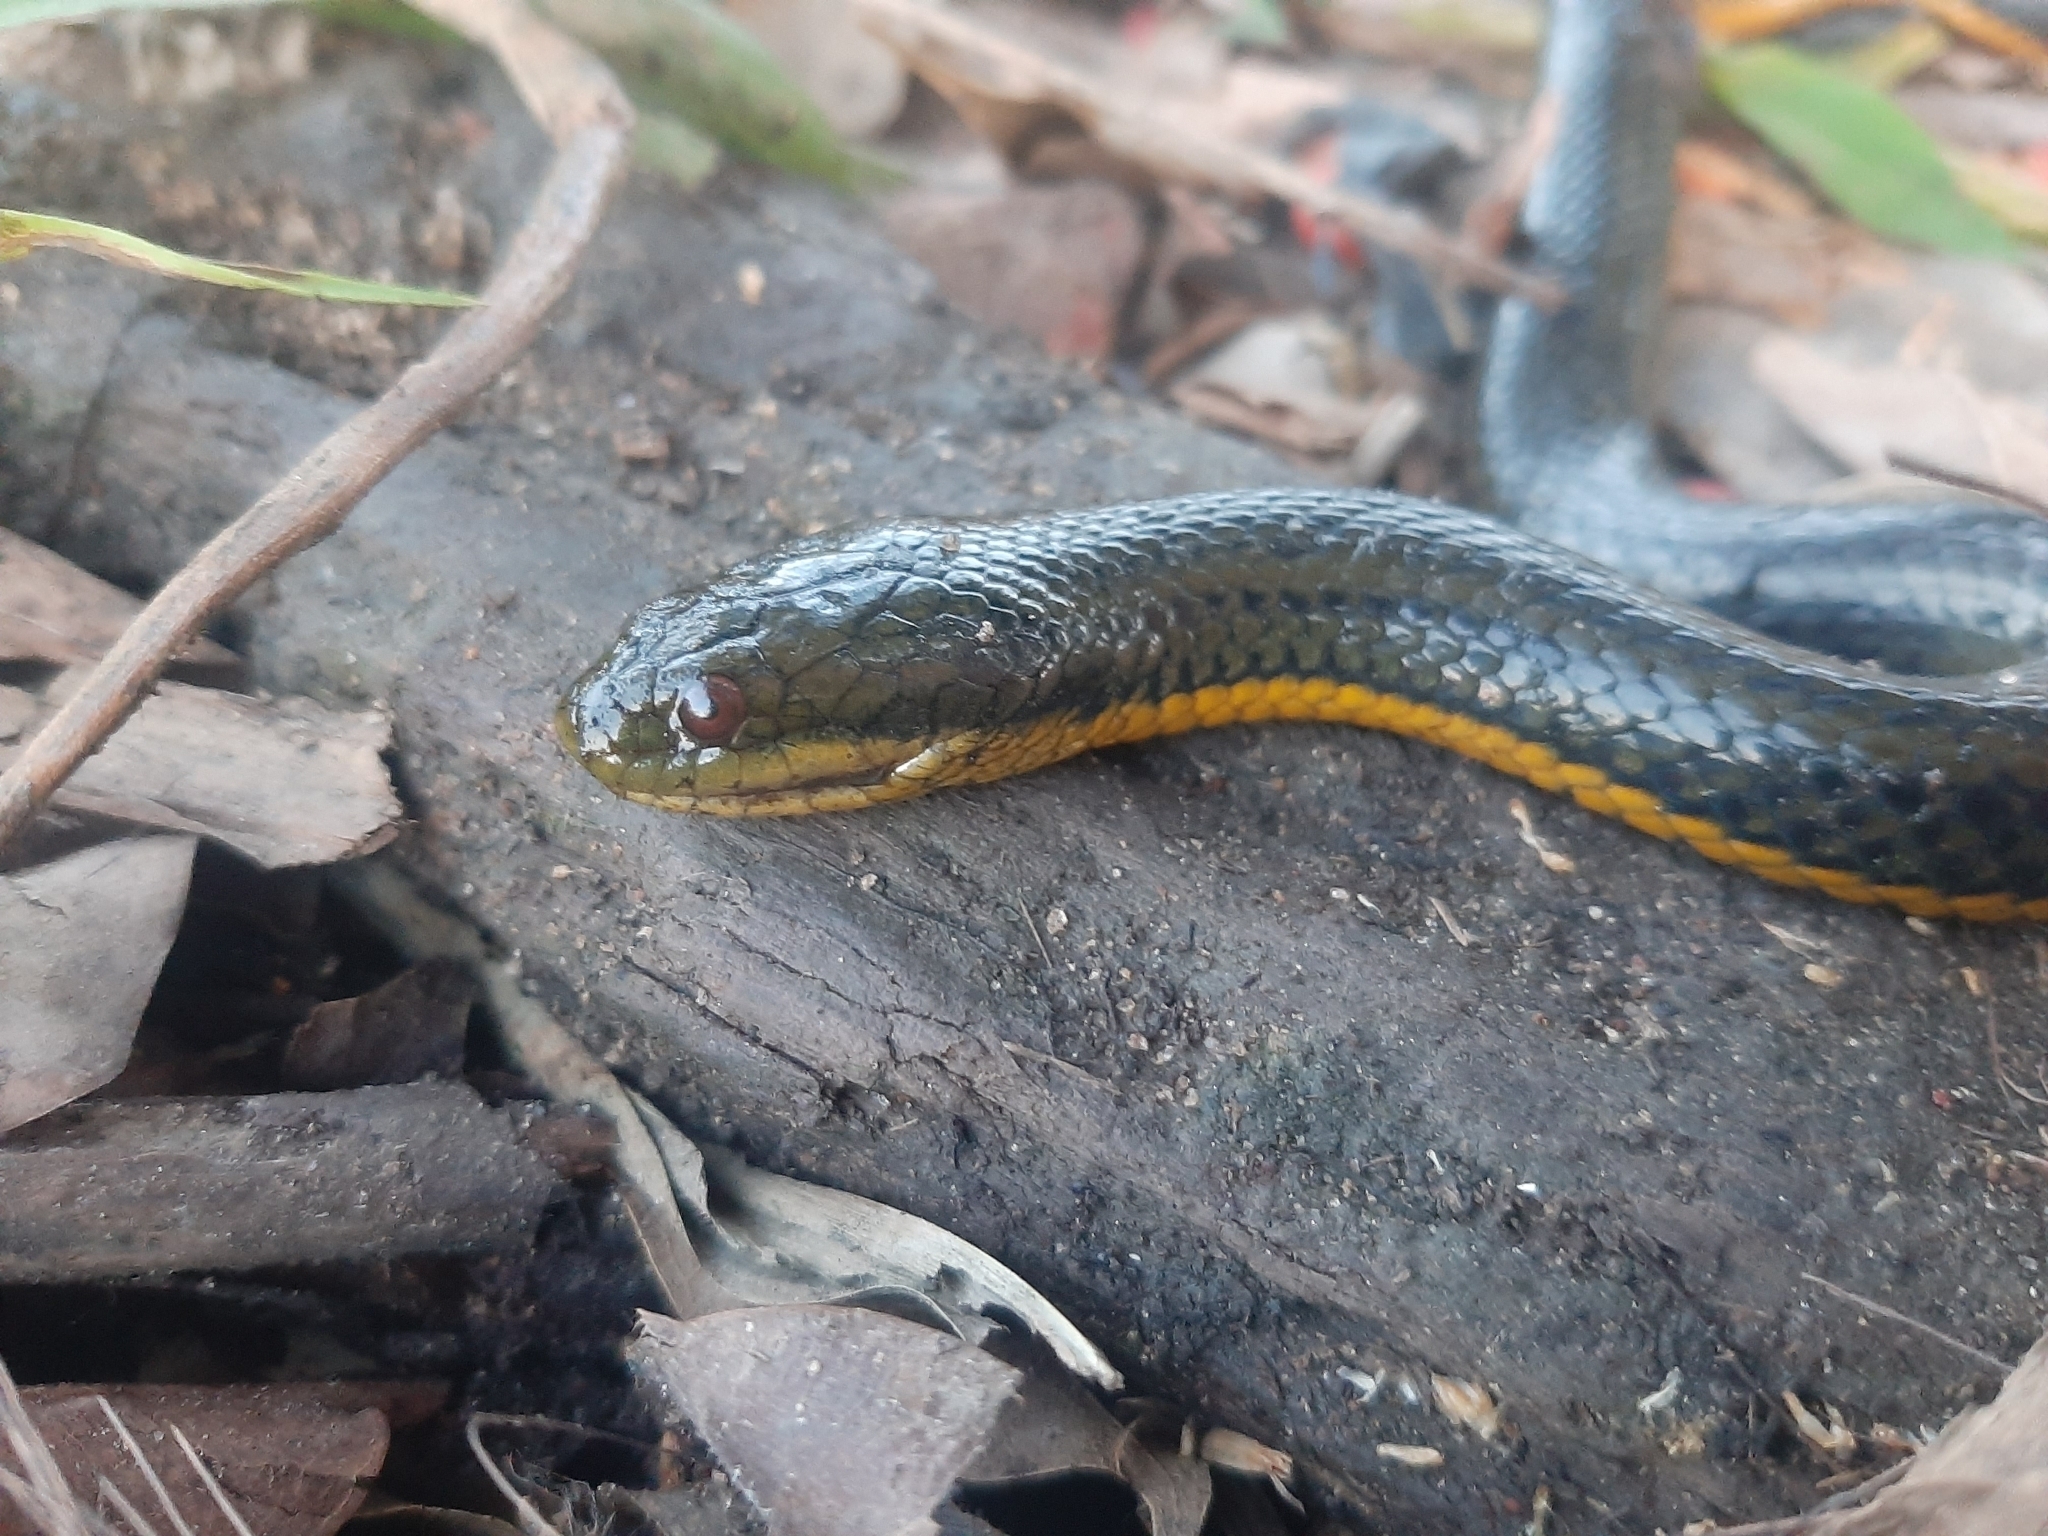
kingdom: Animalia
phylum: Chordata
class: Squamata
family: Colubridae
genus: Helicops
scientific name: Helicops carinicaudus
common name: Wied's keelback
